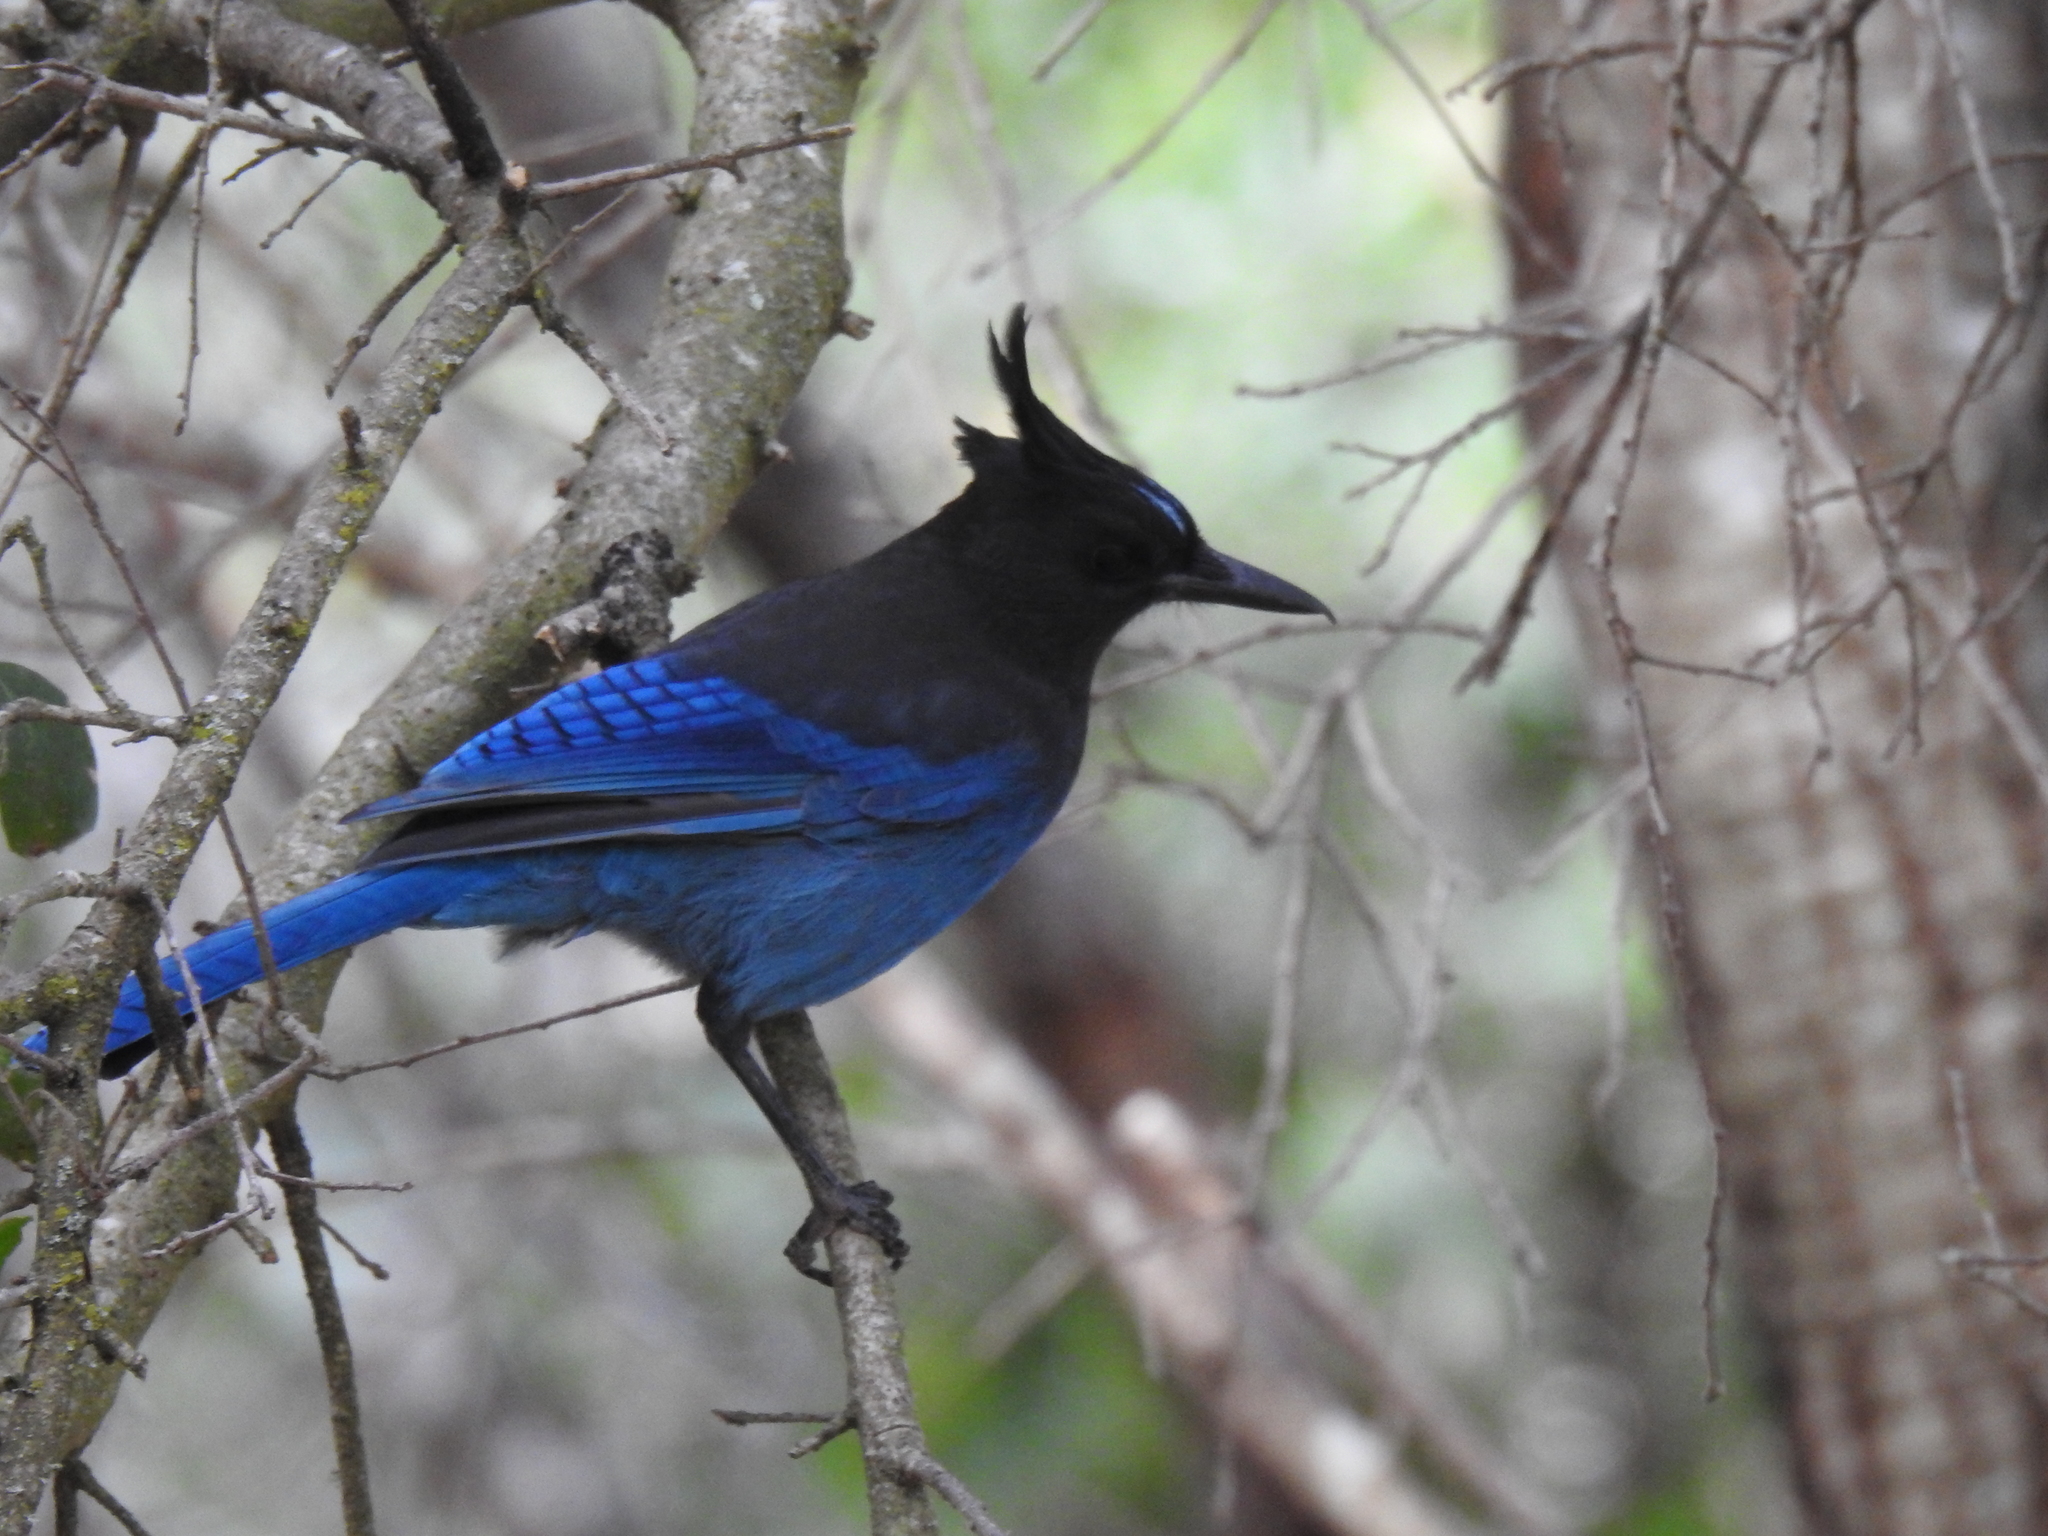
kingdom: Animalia
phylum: Chordata
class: Aves
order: Passeriformes
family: Corvidae
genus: Cyanocitta
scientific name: Cyanocitta stelleri
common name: Steller's jay
